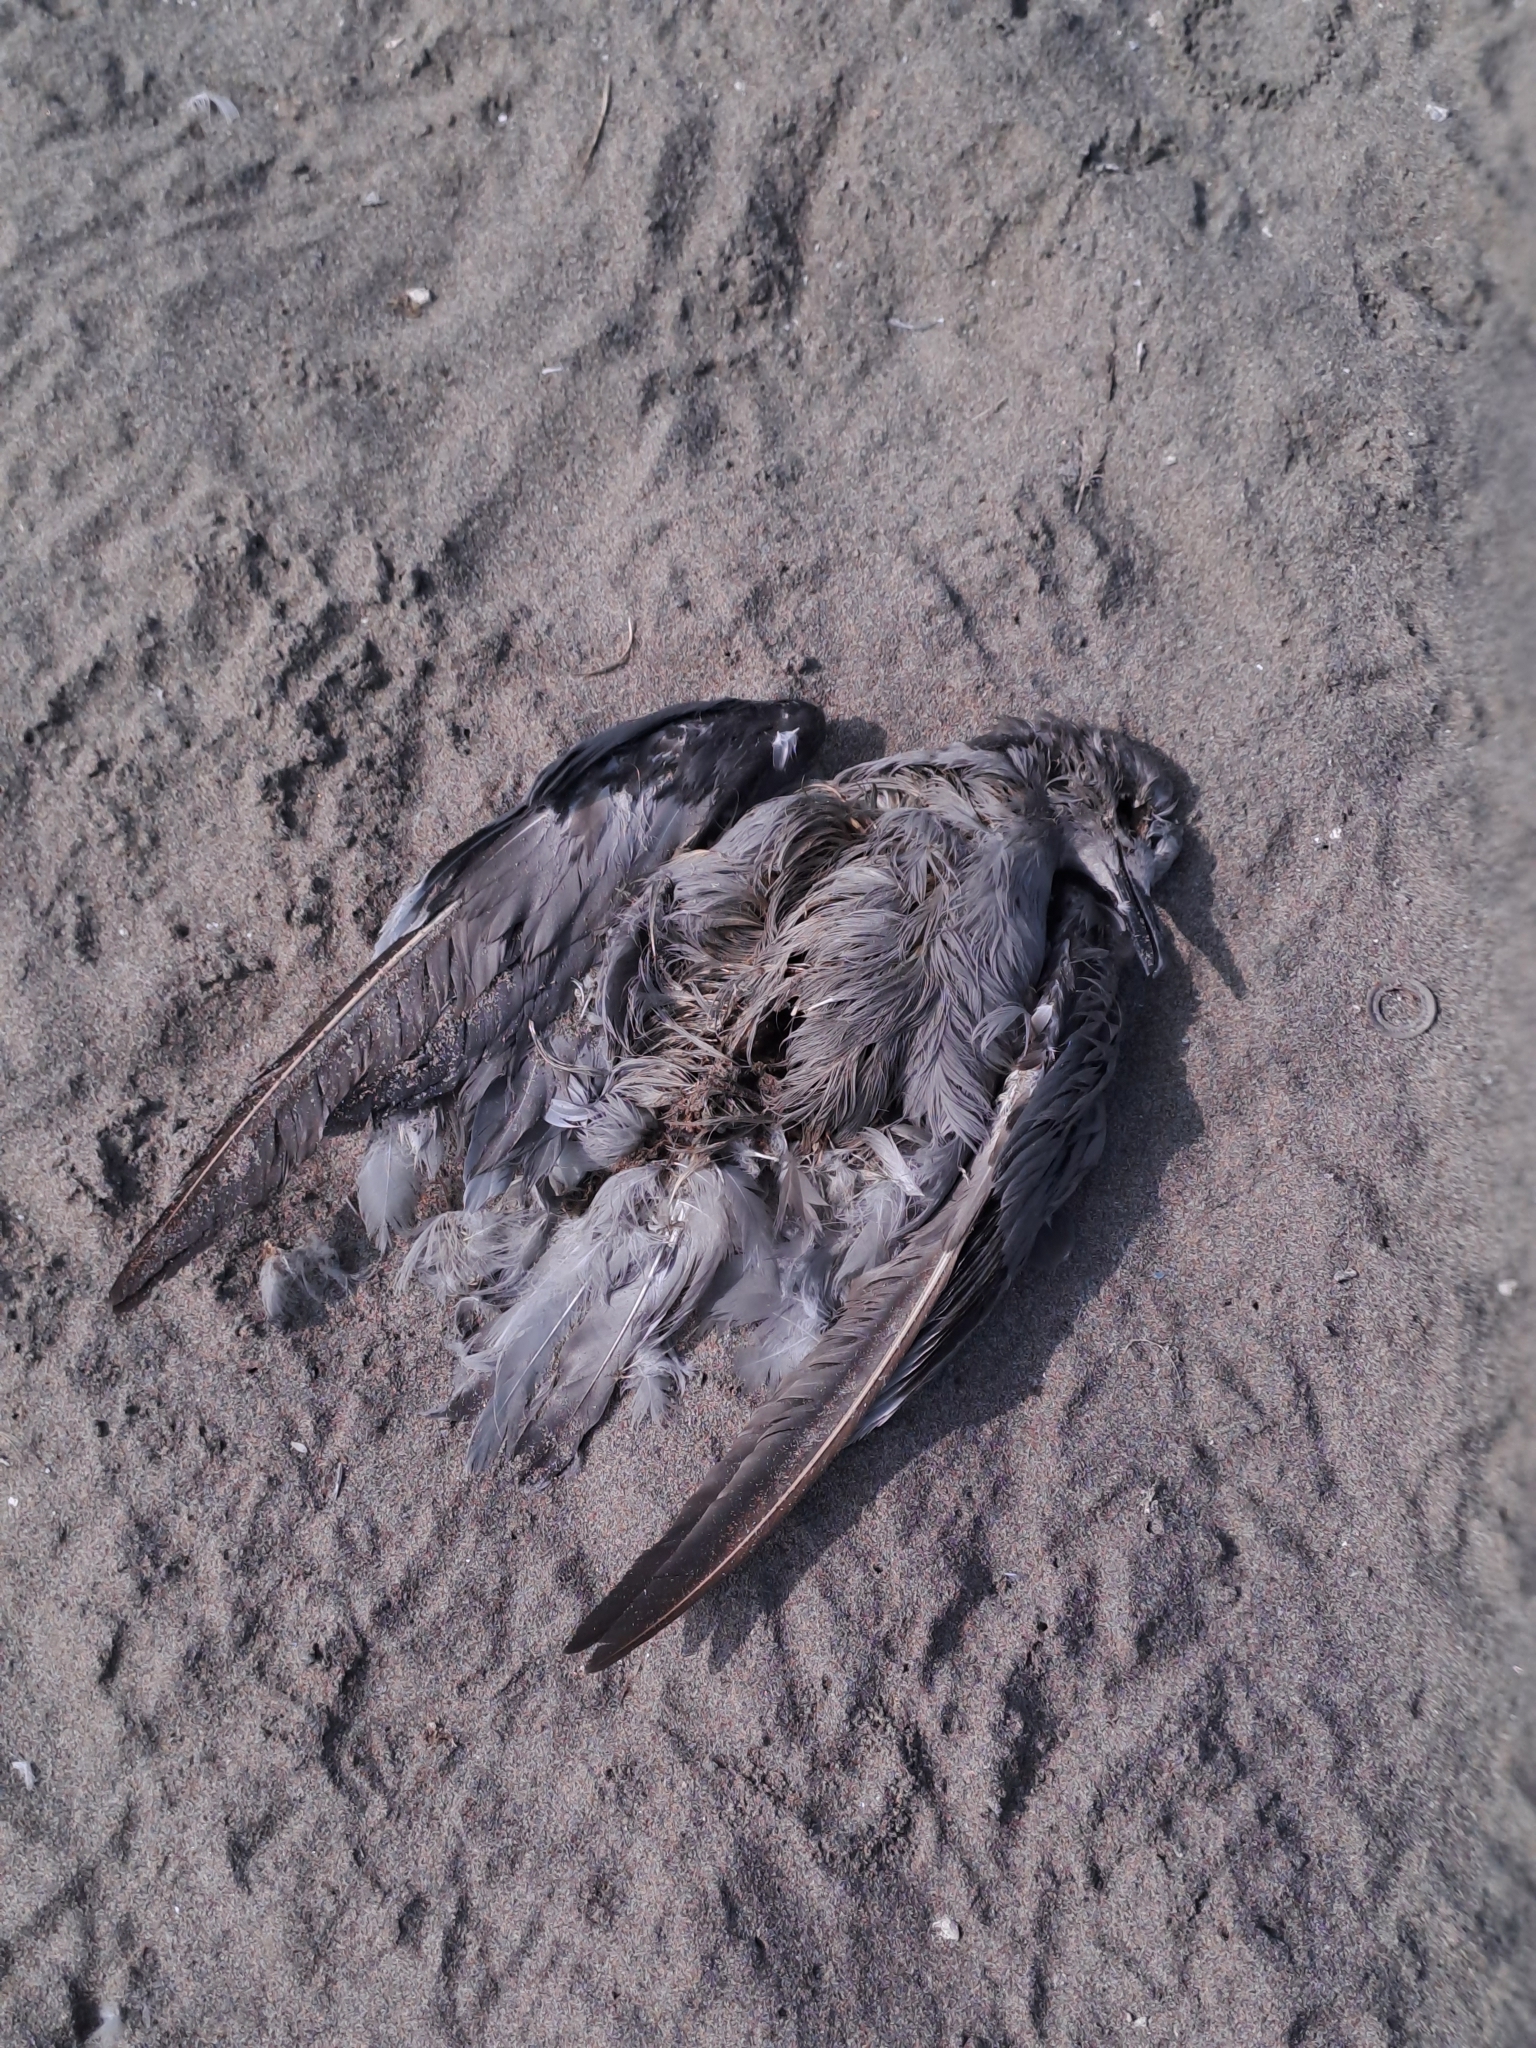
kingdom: Animalia
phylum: Chordata
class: Aves
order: Charadriiformes
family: Laridae
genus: Larus
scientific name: Larus belcheri
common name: Belcher's gull
